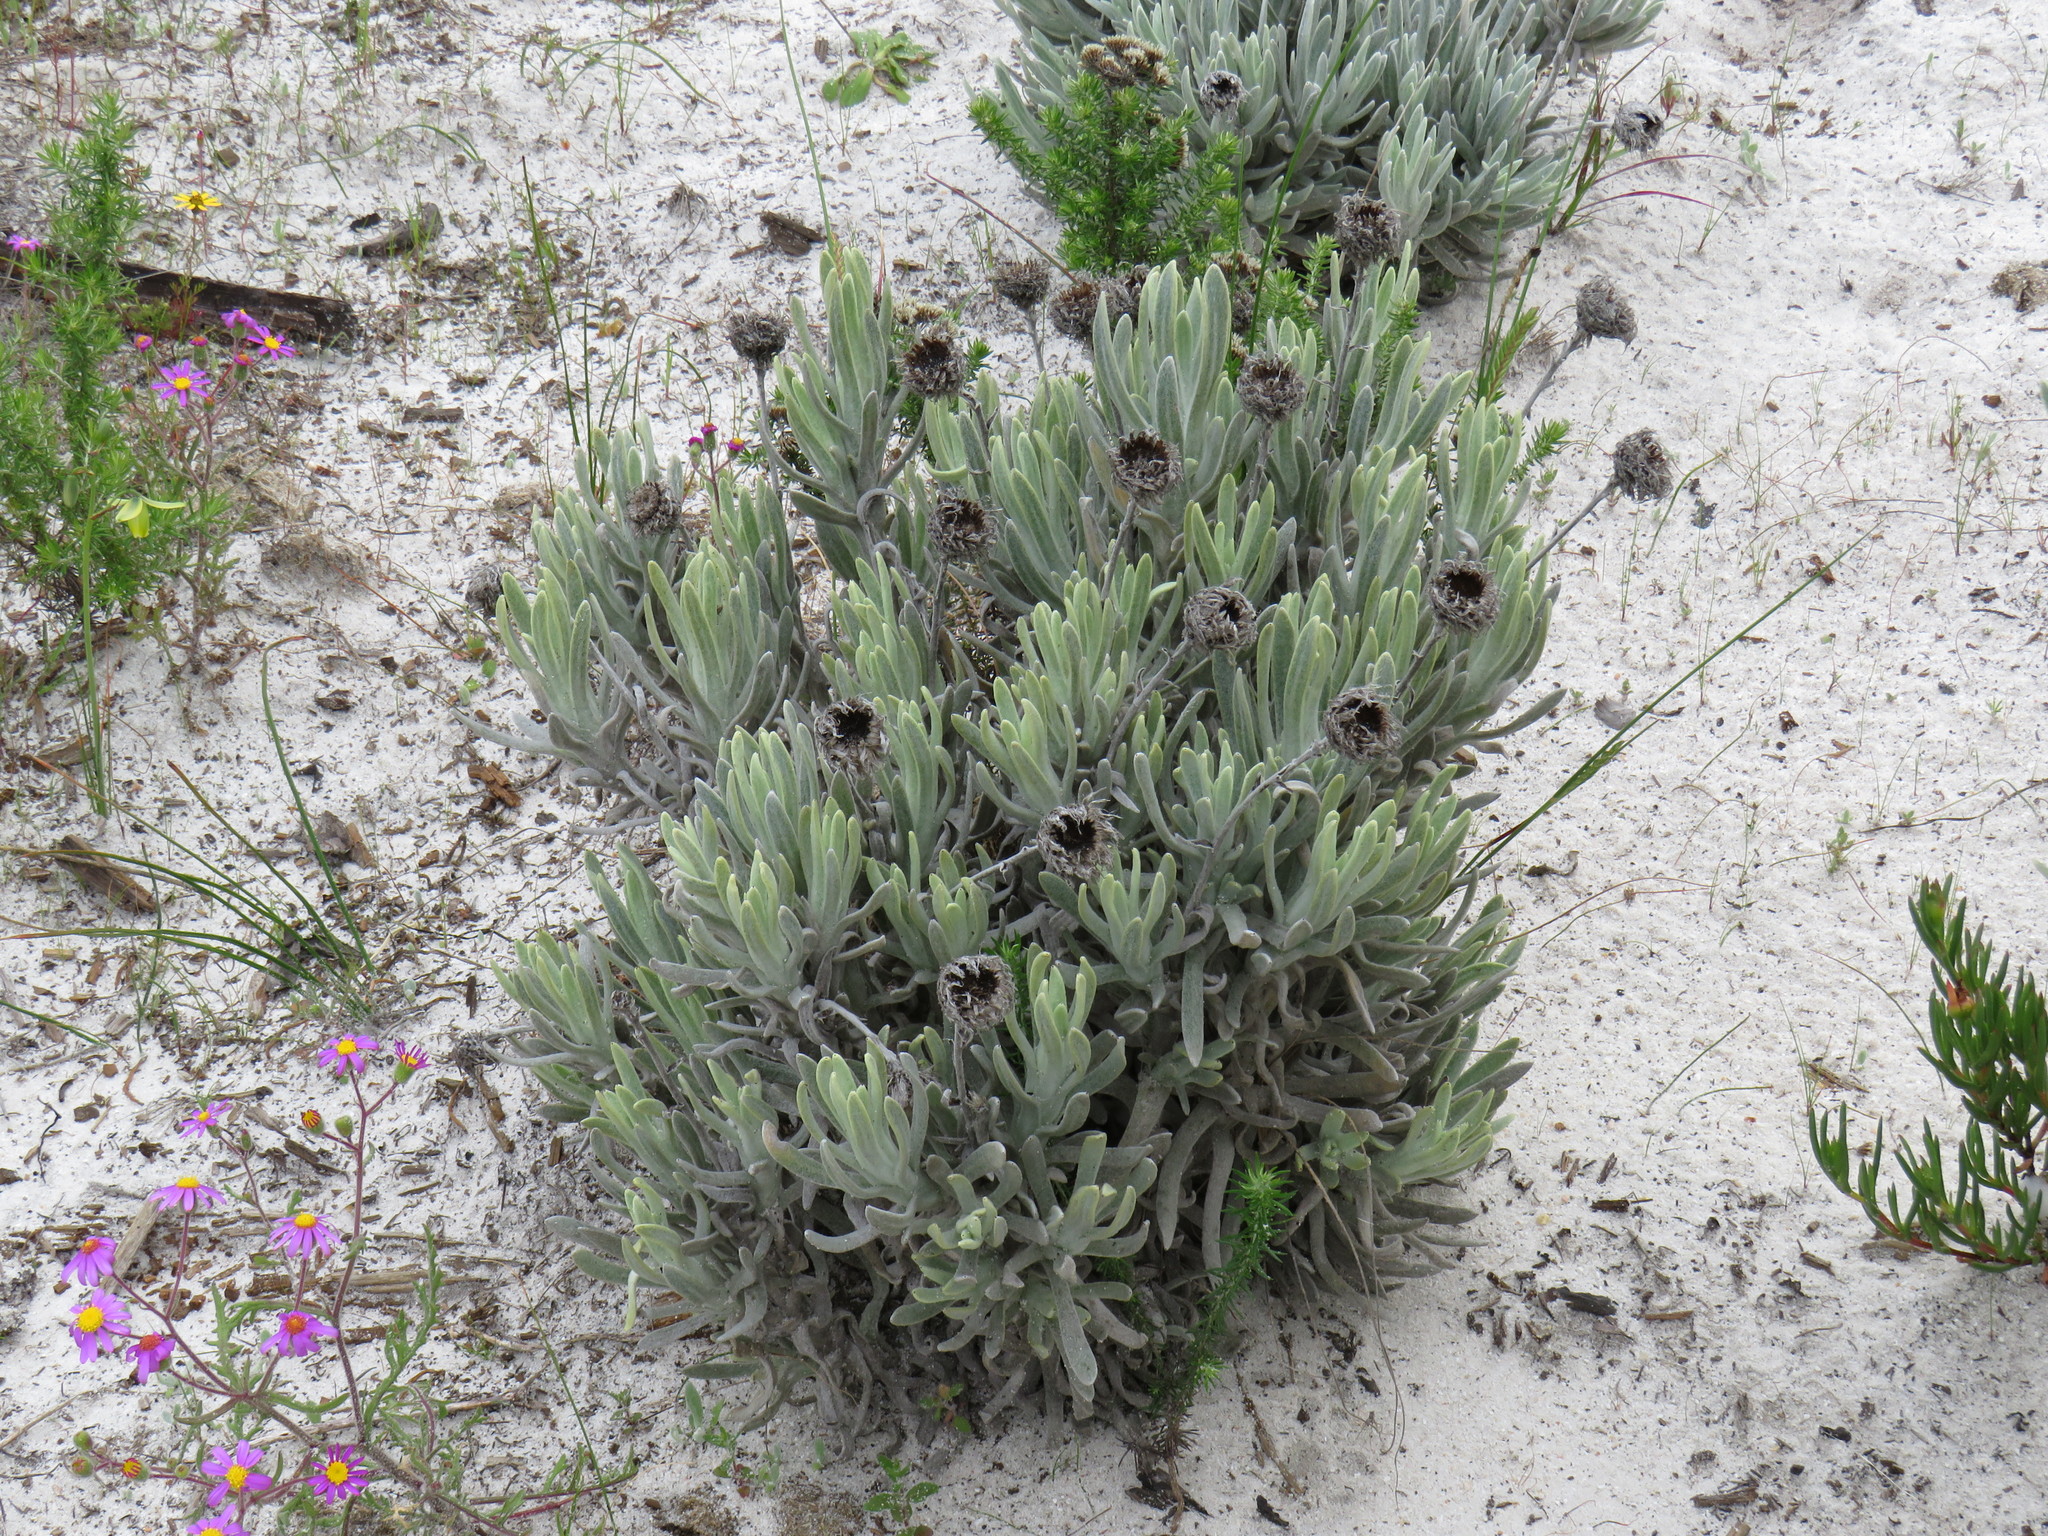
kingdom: Plantae
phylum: Tracheophyta
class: Magnoliopsida
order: Asterales
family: Asteraceae
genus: Syncarpha
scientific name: Syncarpha vestita
